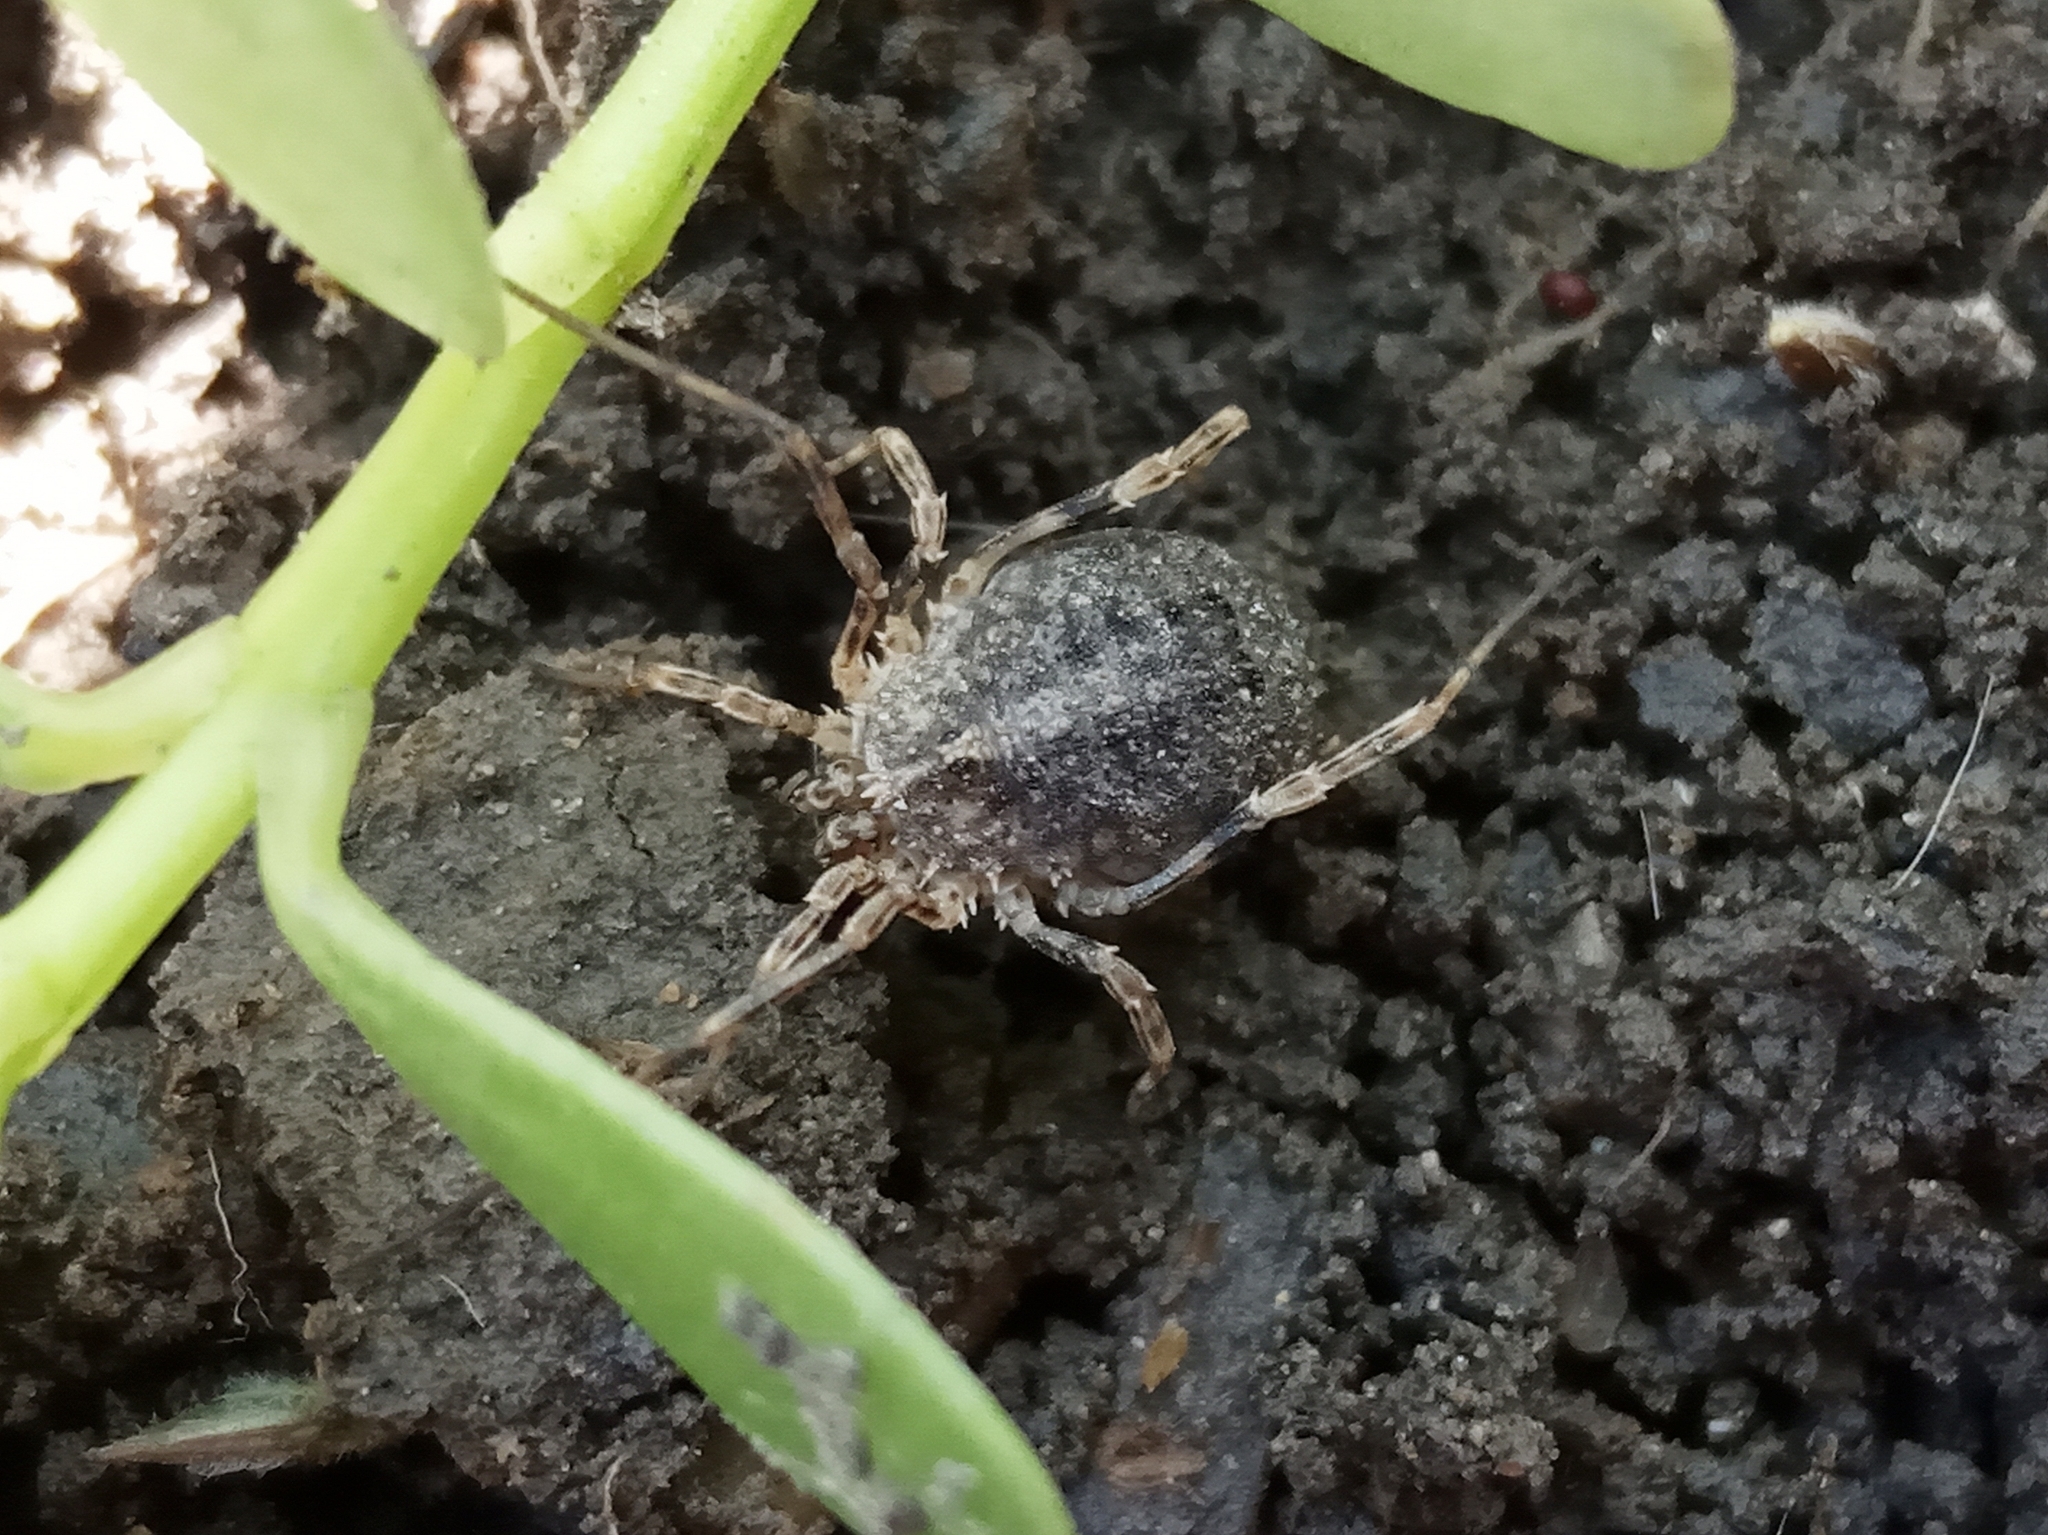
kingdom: Animalia
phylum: Arthropoda
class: Arachnida
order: Opiliones
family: Phalangiidae
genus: Odiellus
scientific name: Odiellus
